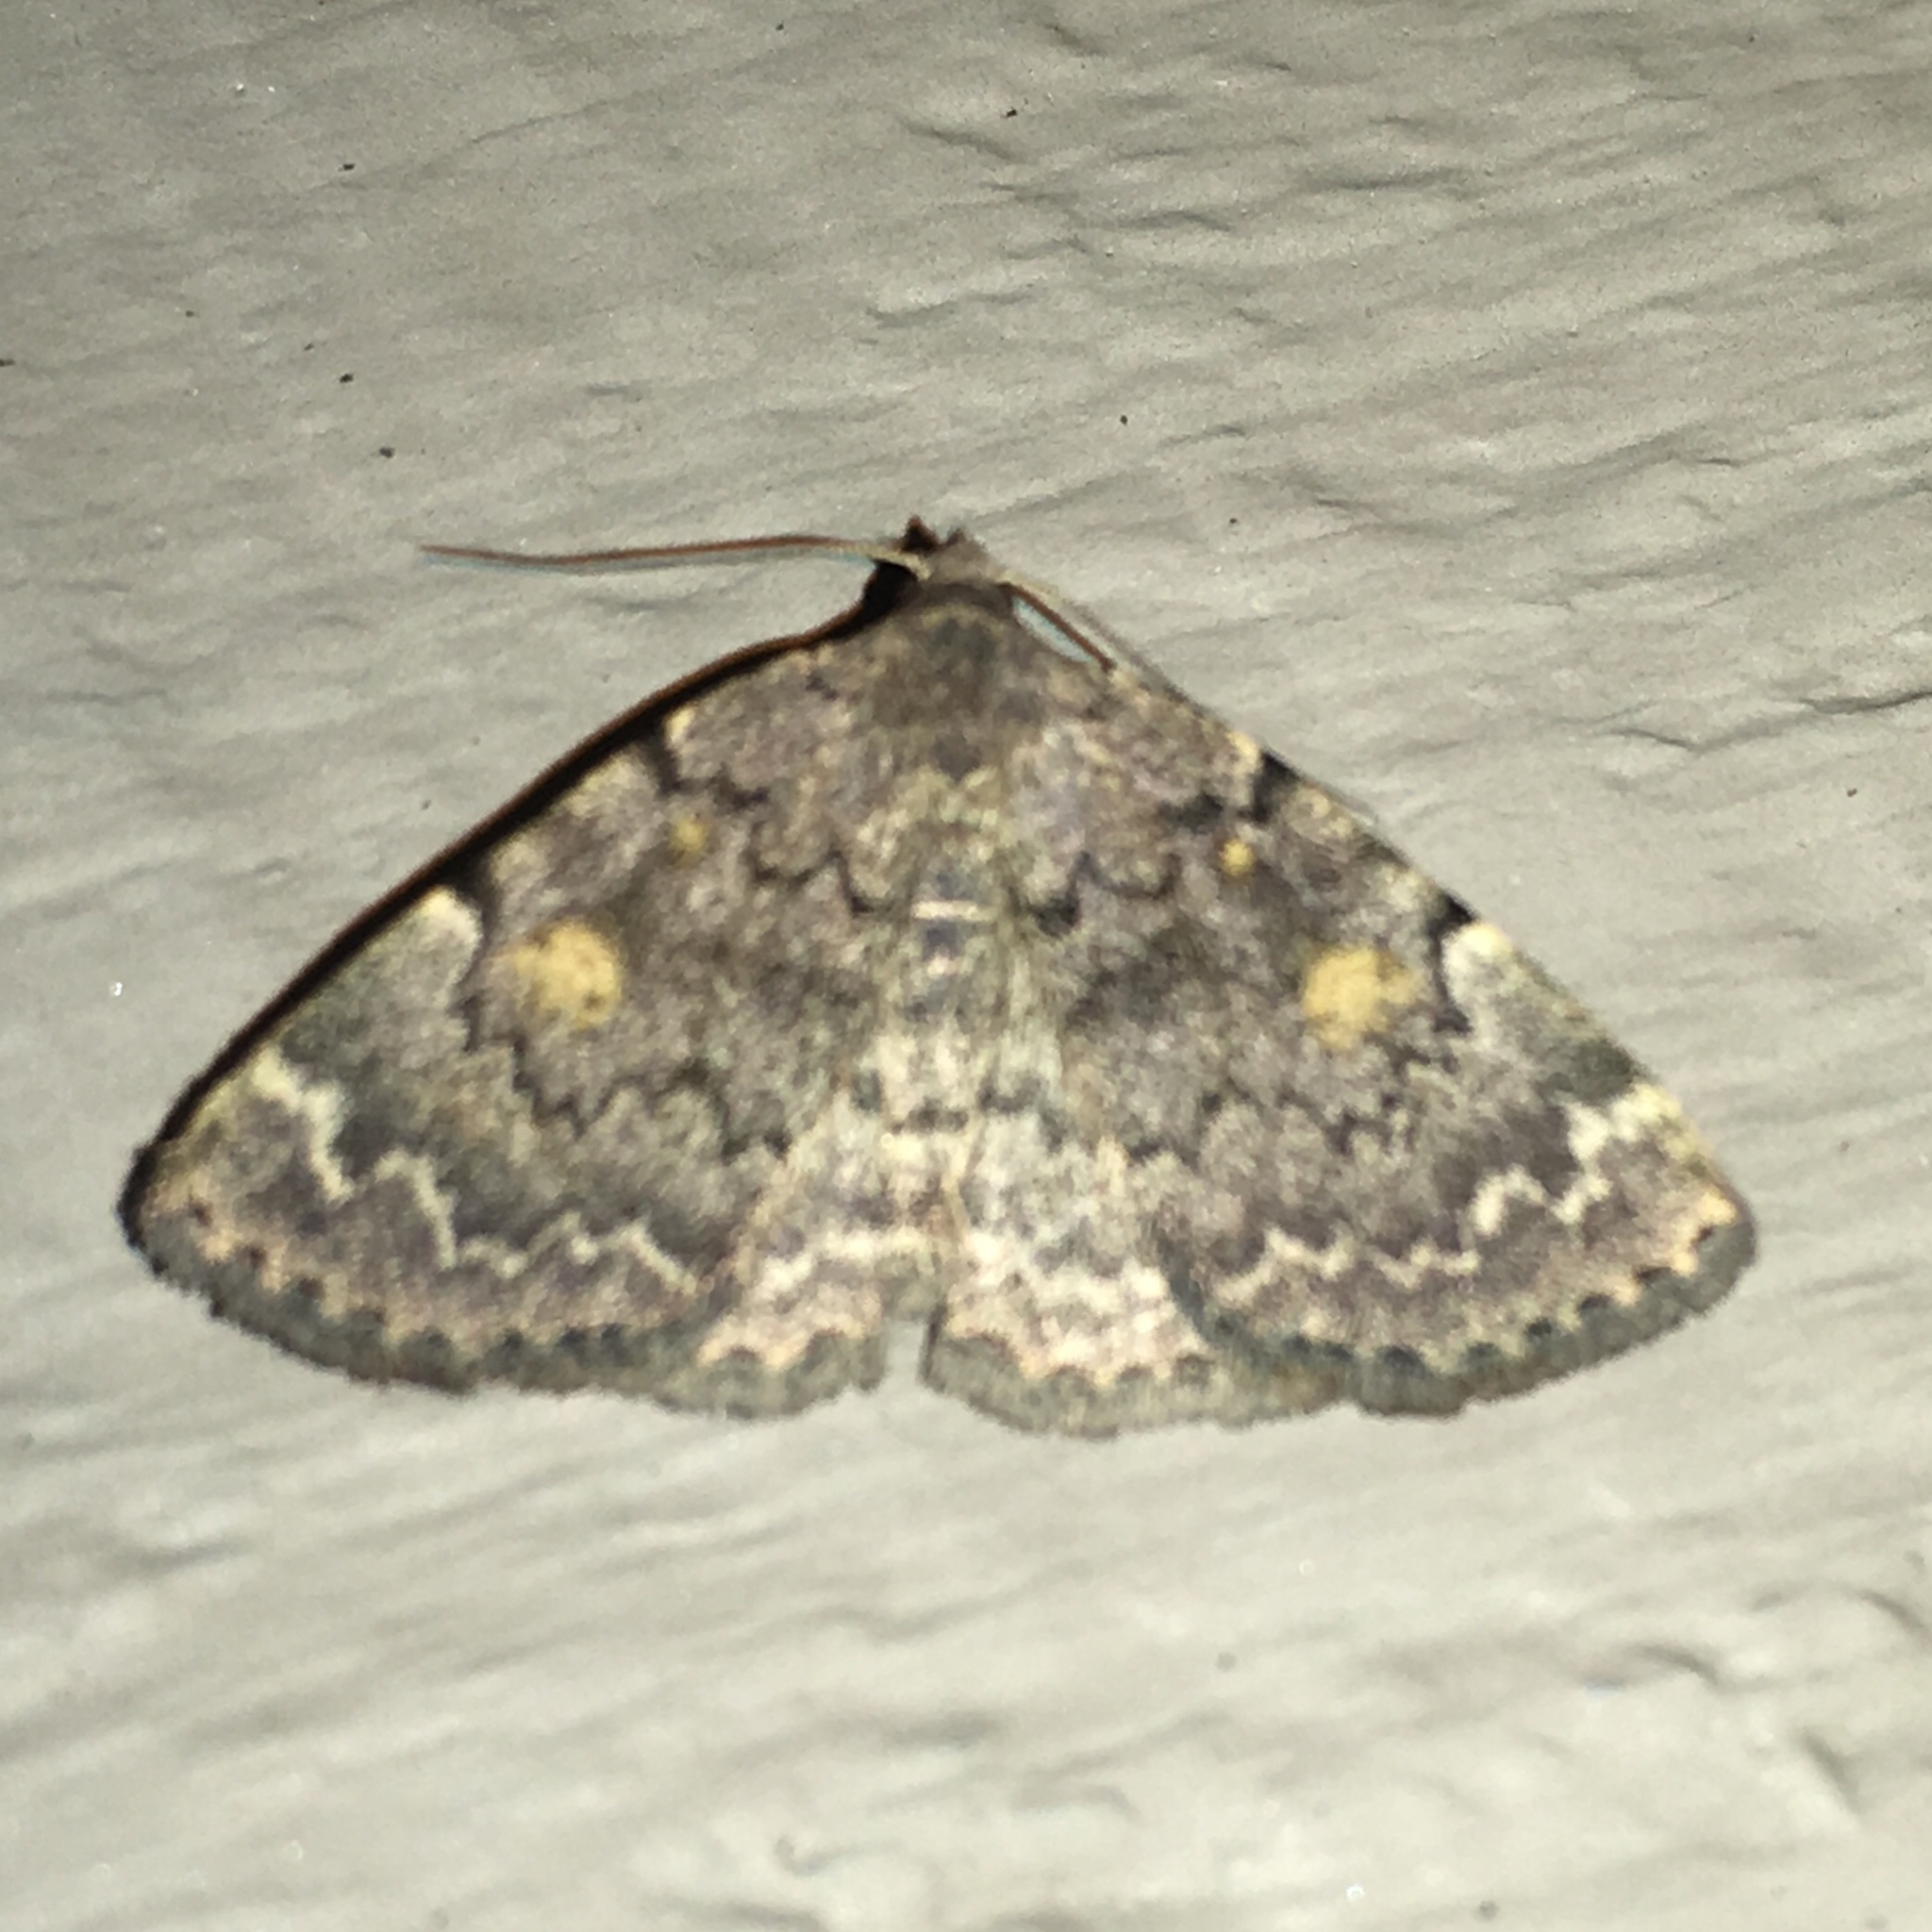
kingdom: Animalia
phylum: Arthropoda
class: Insecta
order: Lepidoptera
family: Erebidae
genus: Idia
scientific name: Idia aemula
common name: Common idia moth
